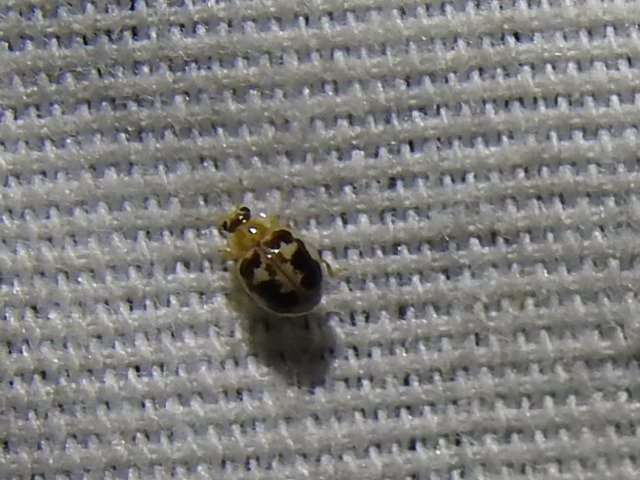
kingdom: Animalia
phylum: Arthropoda
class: Insecta
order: Coleoptera
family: Coccinellidae
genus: Psyllobora
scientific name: Psyllobora renifer
